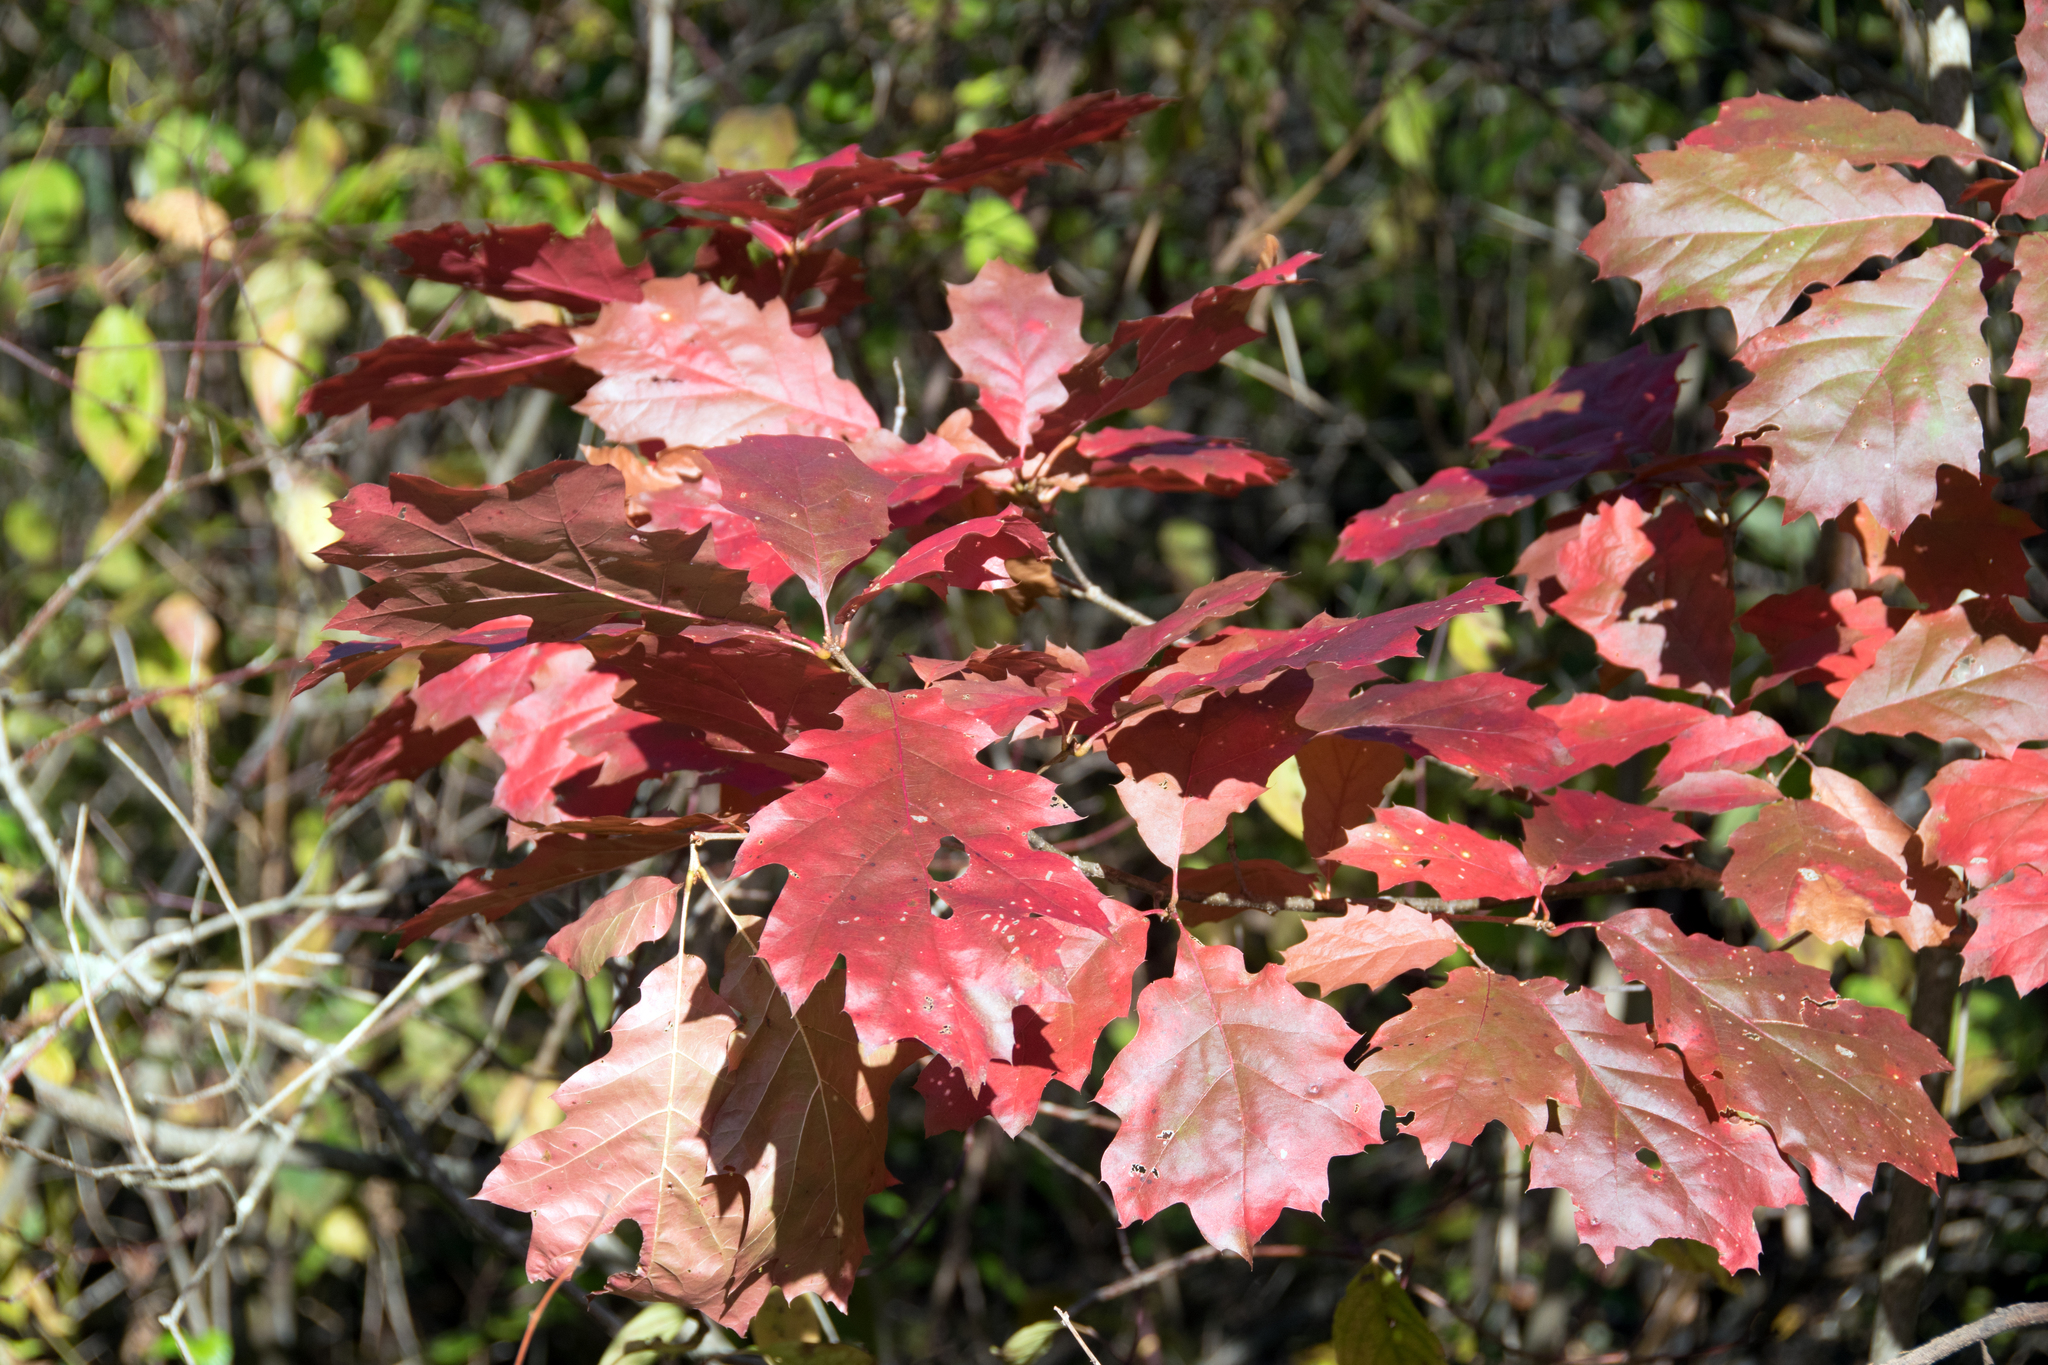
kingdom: Plantae
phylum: Tracheophyta
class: Magnoliopsida
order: Fagales
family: Fagaceae
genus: Quercus
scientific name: Quercus rubra
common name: Red oak
